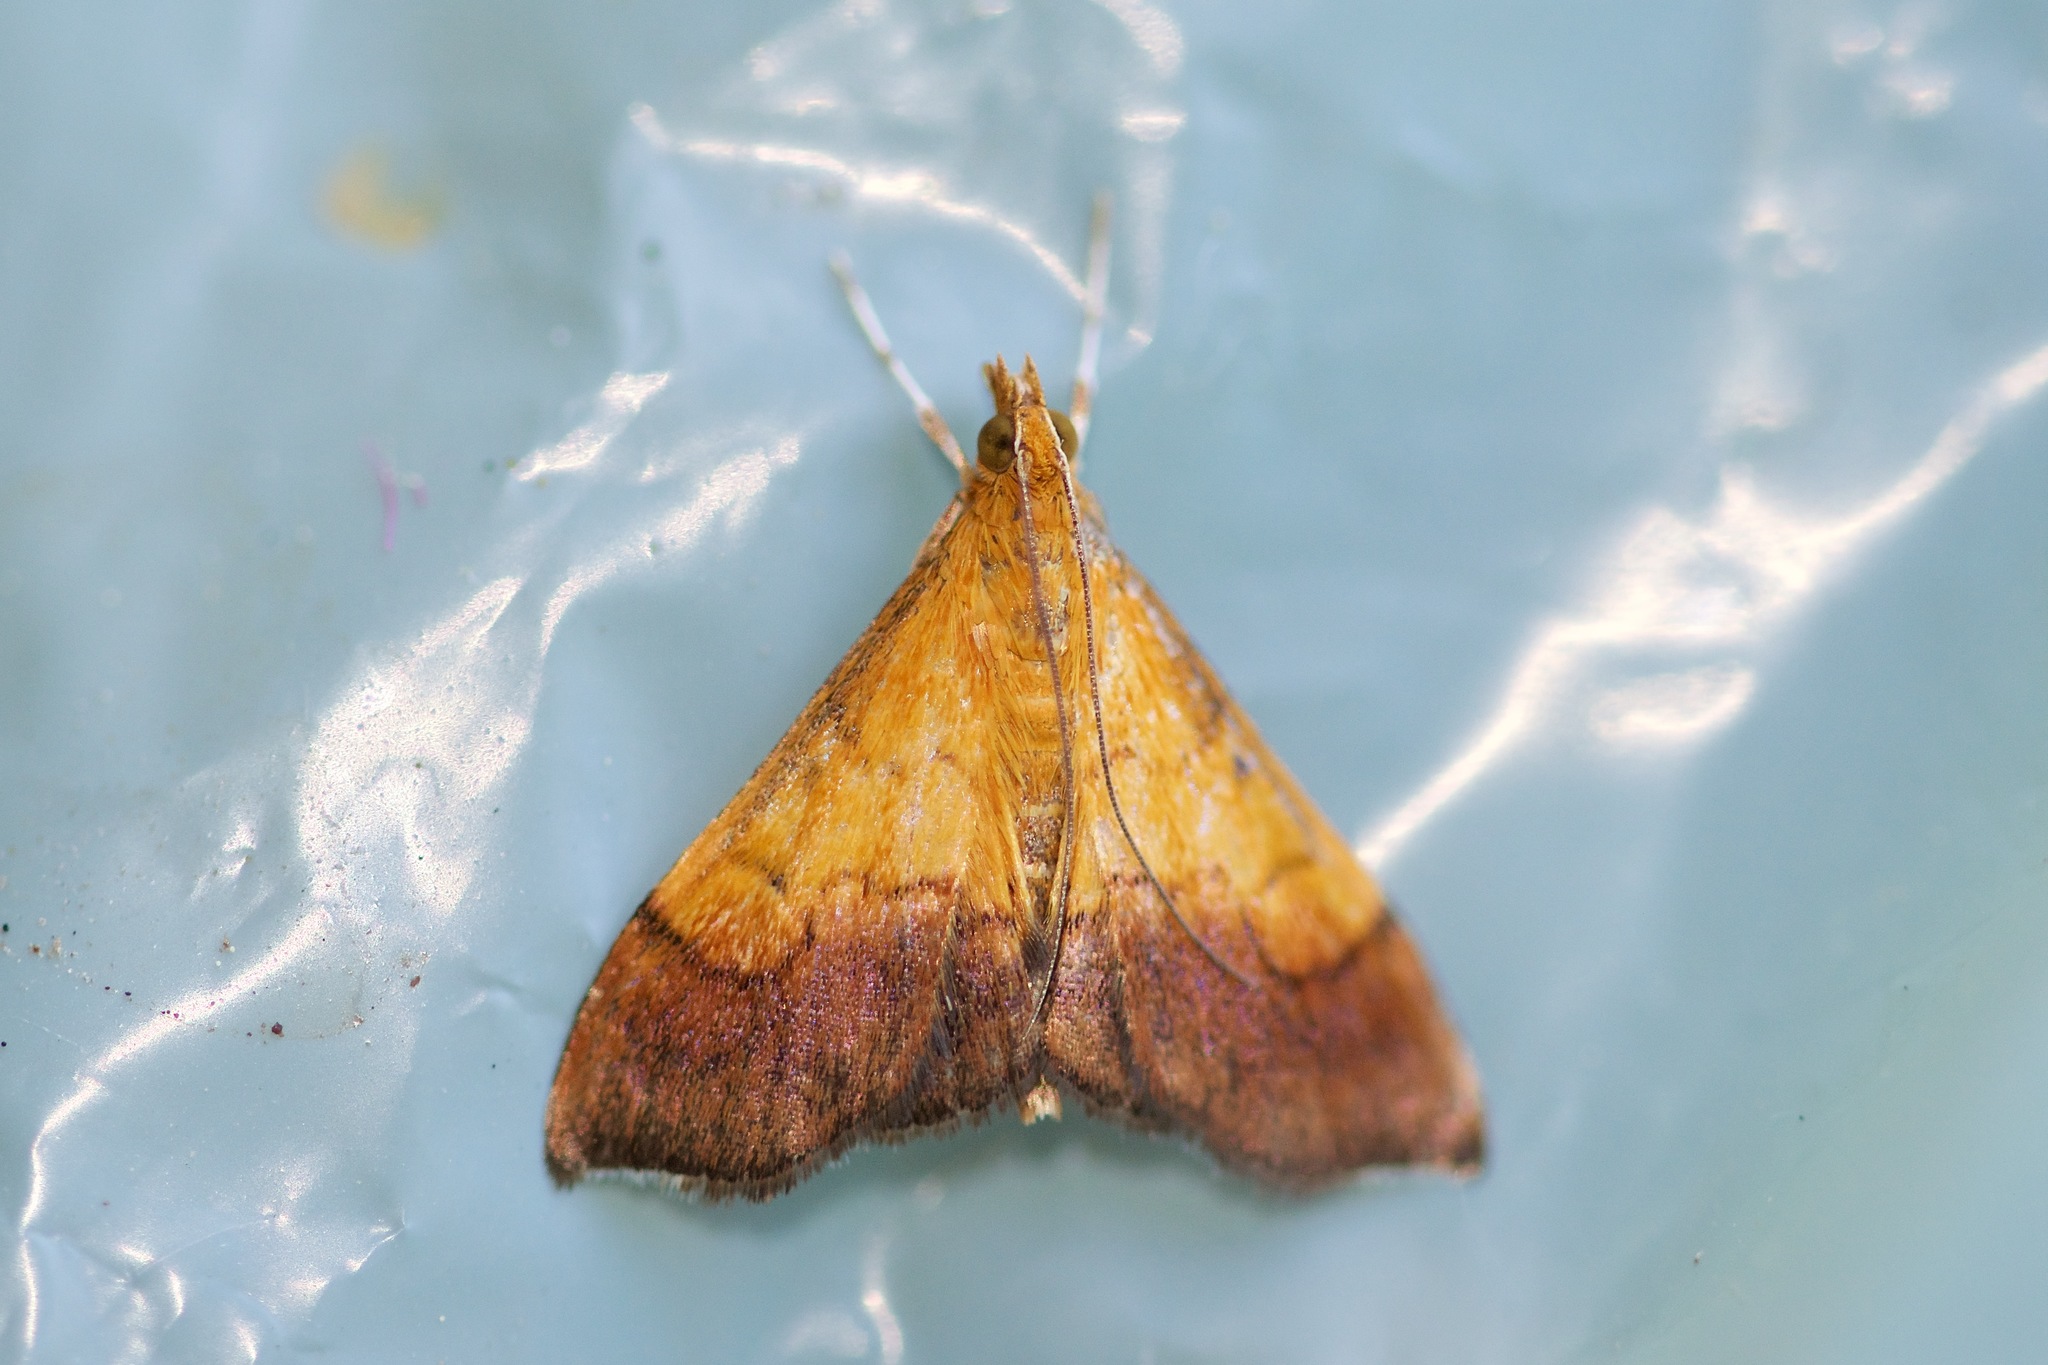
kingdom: Animalia
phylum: Arthropoda
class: Insecta
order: Lepidoptera
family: Crambidae
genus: Pyrausta
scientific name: Pyrausta bicoloralis
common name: Bicolored pyrausta moth
